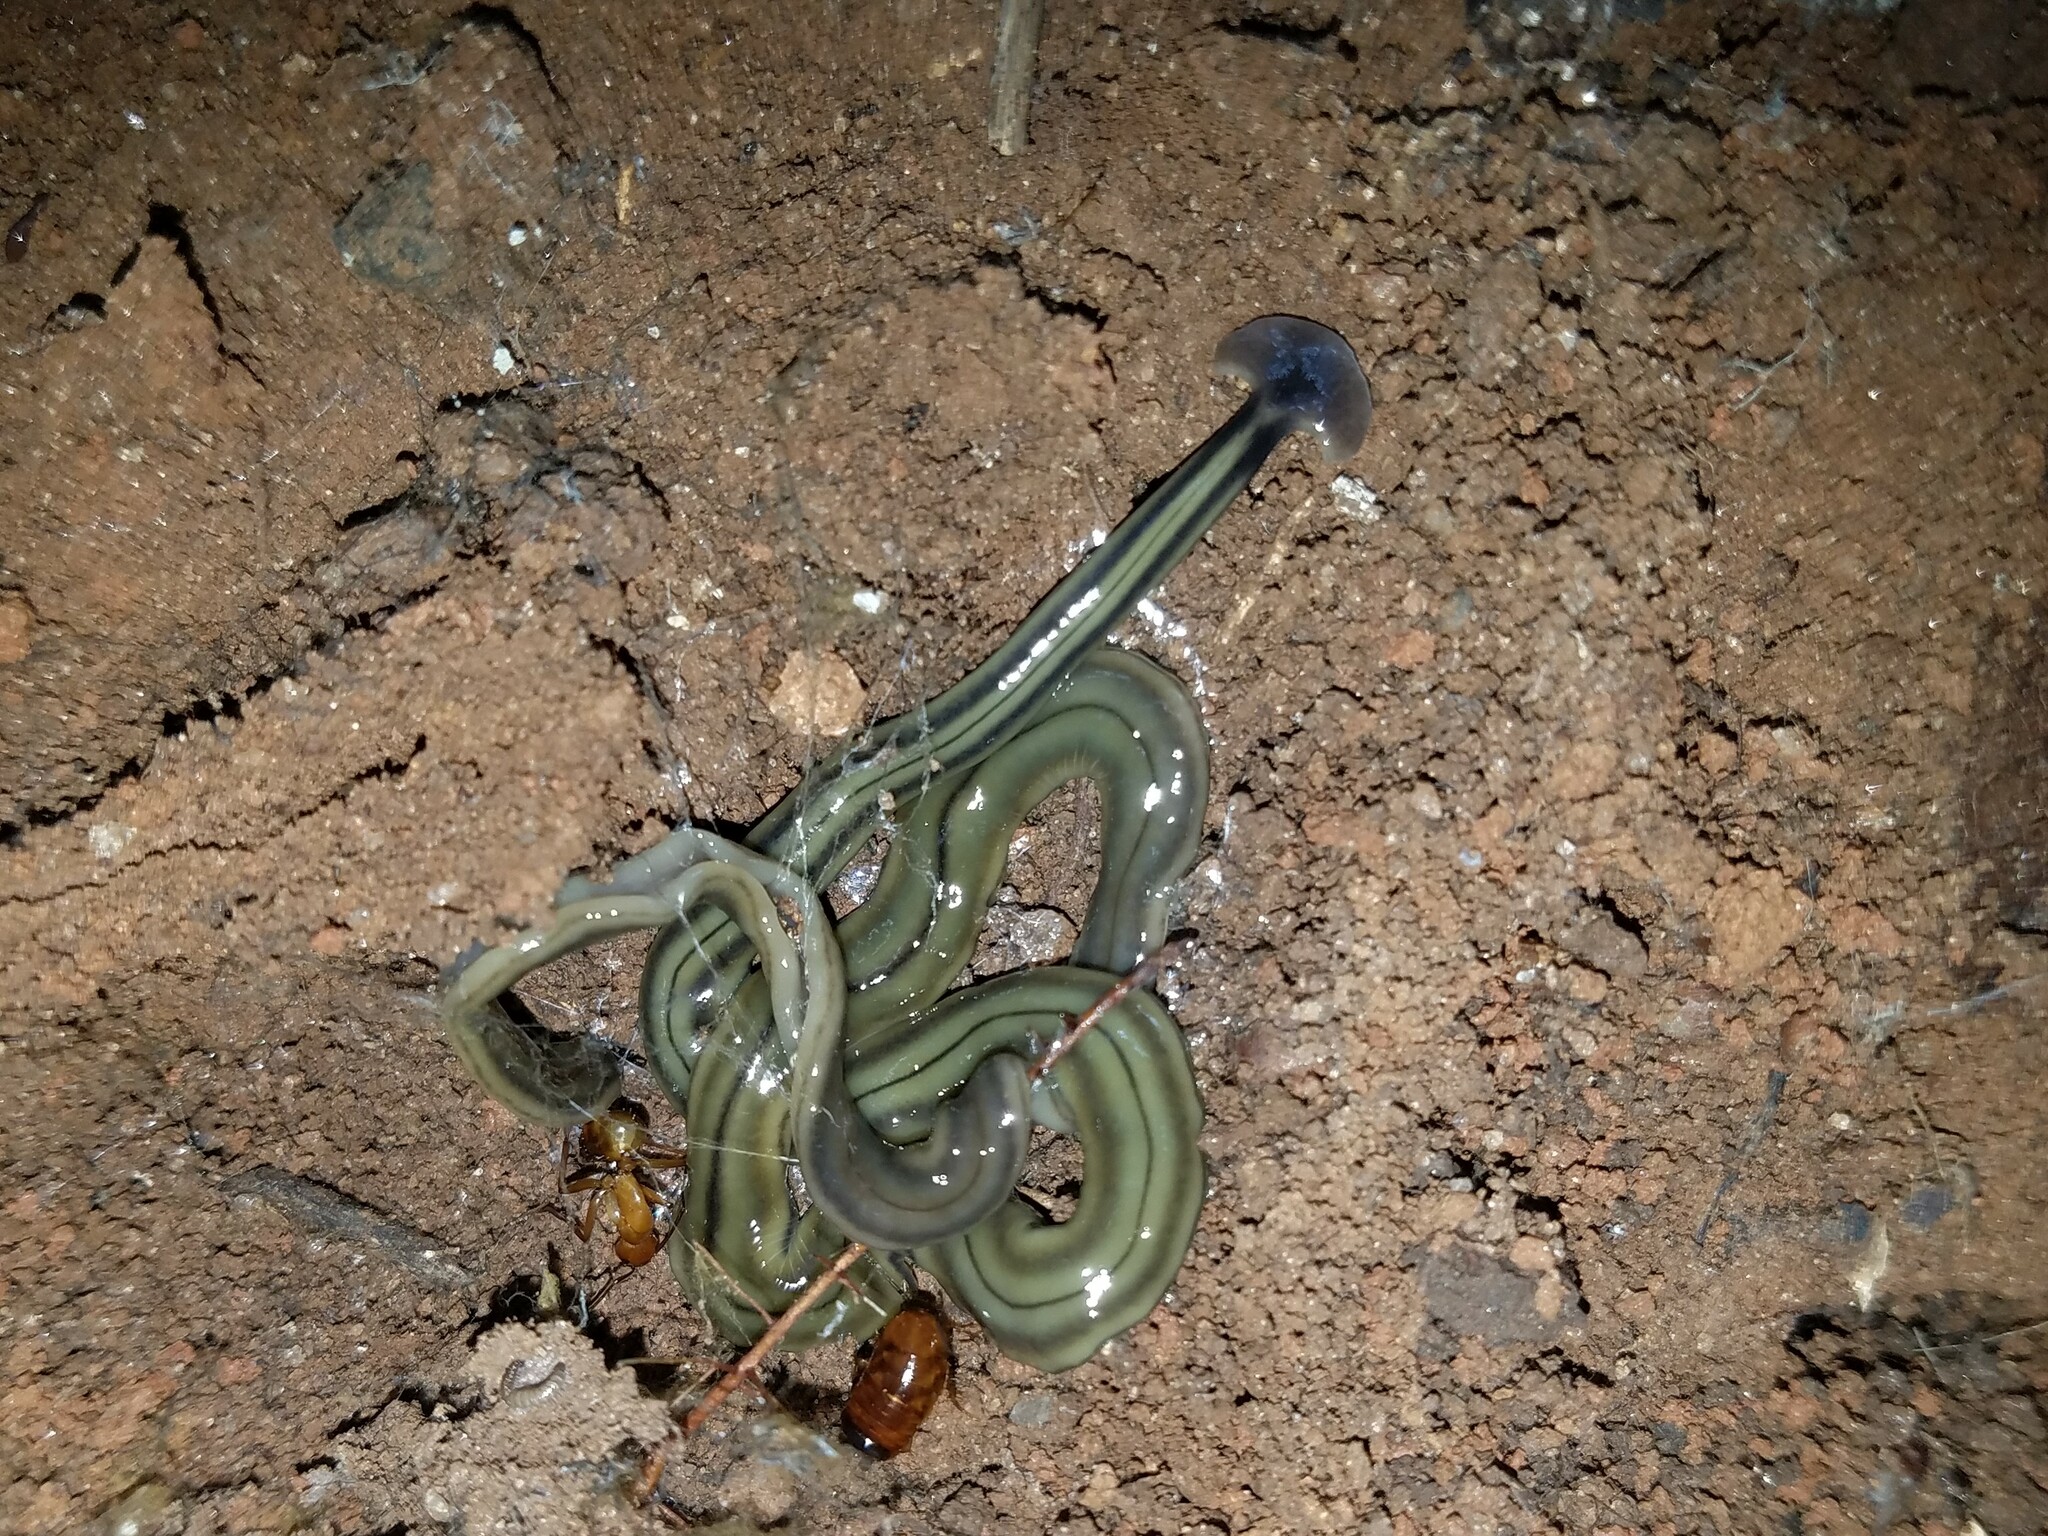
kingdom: Animalia
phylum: Platyhelminthes
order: Tricladida
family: Geoplanidae
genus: Bipalium
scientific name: Bipalium kewense
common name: Hammerhead flatworm
